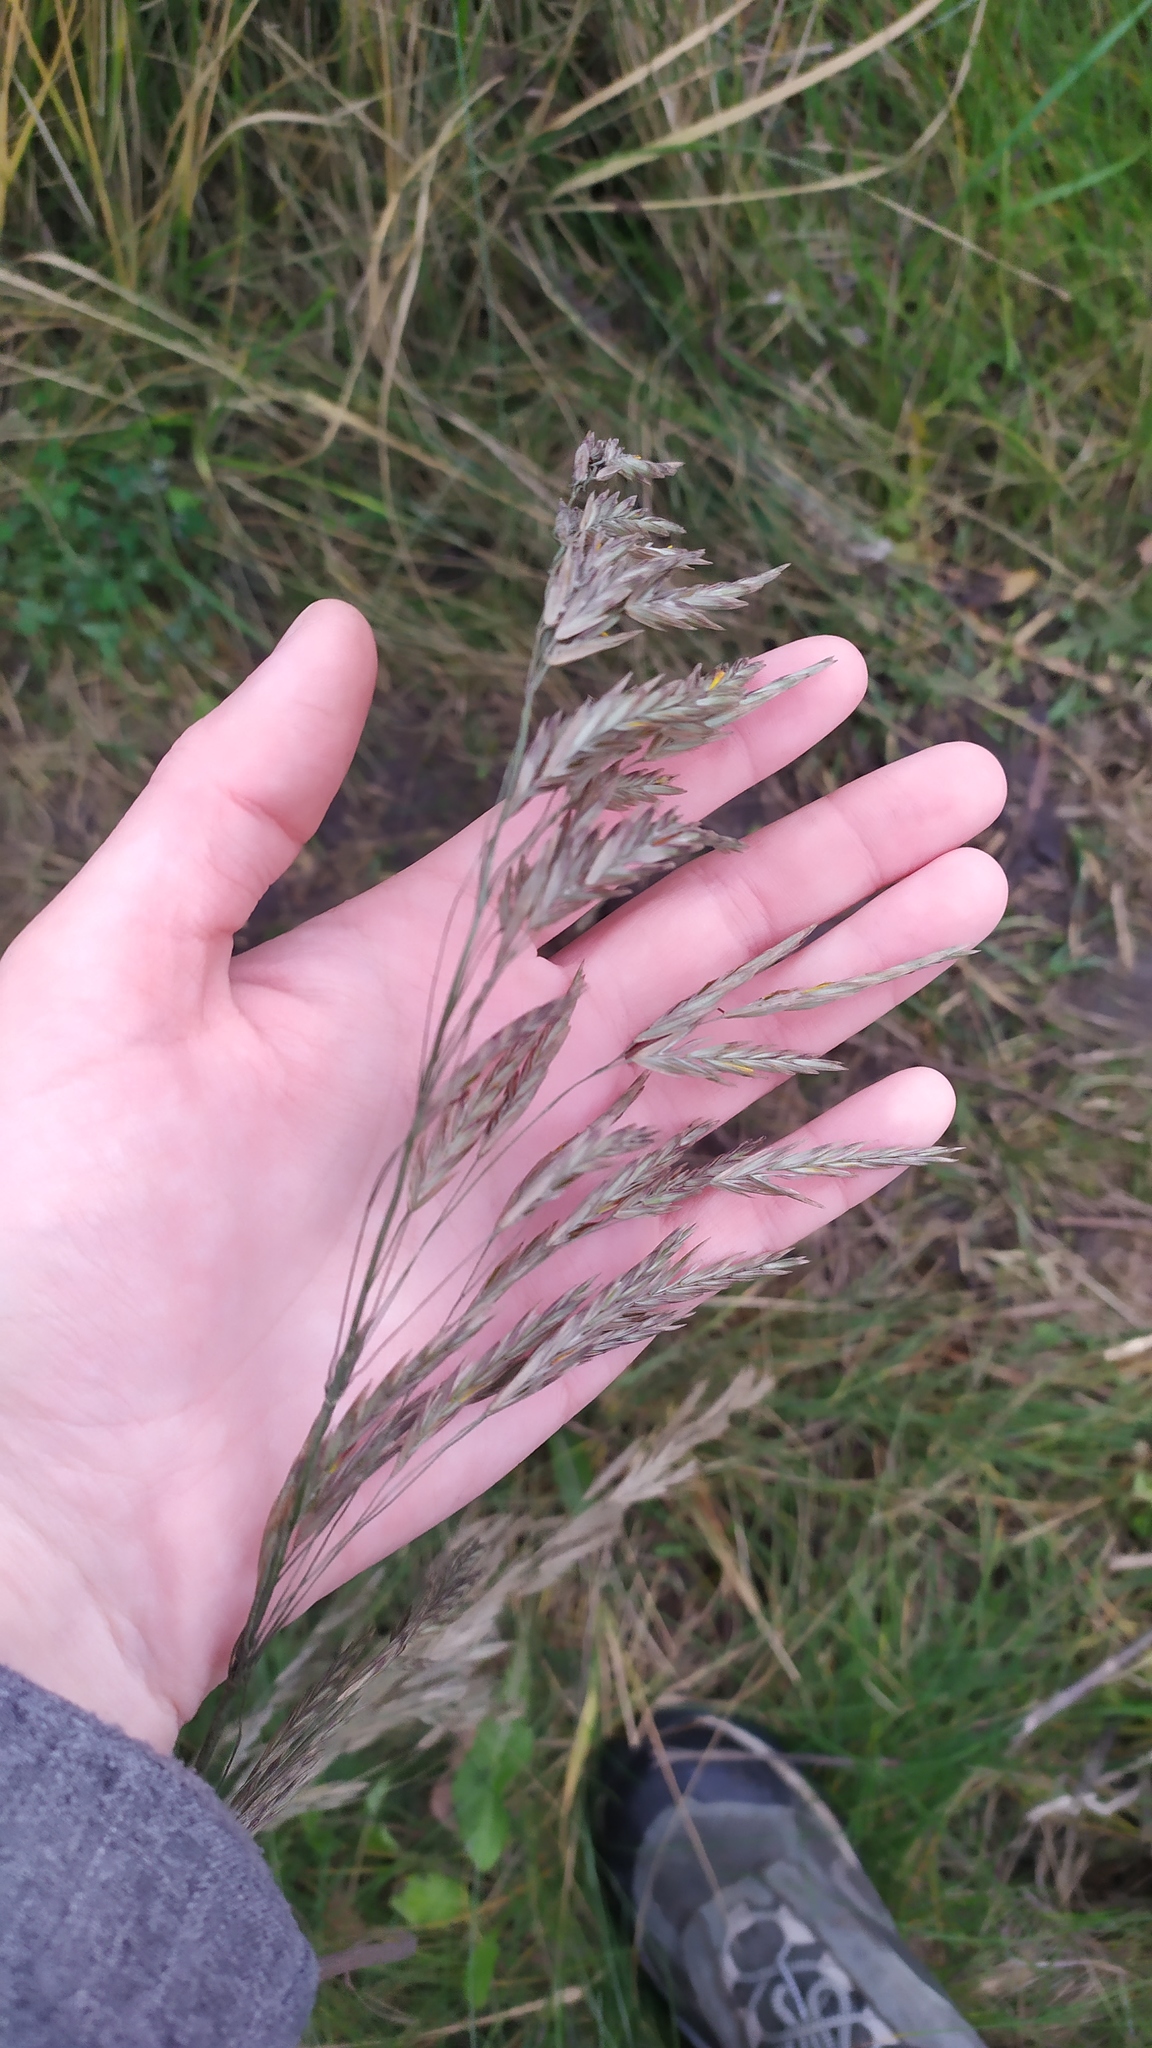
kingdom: Plantae
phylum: Tracheophyta
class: Liliopsida
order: Poales
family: Poaceae
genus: Bromus
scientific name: Bromus inermis
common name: Smooth brome
